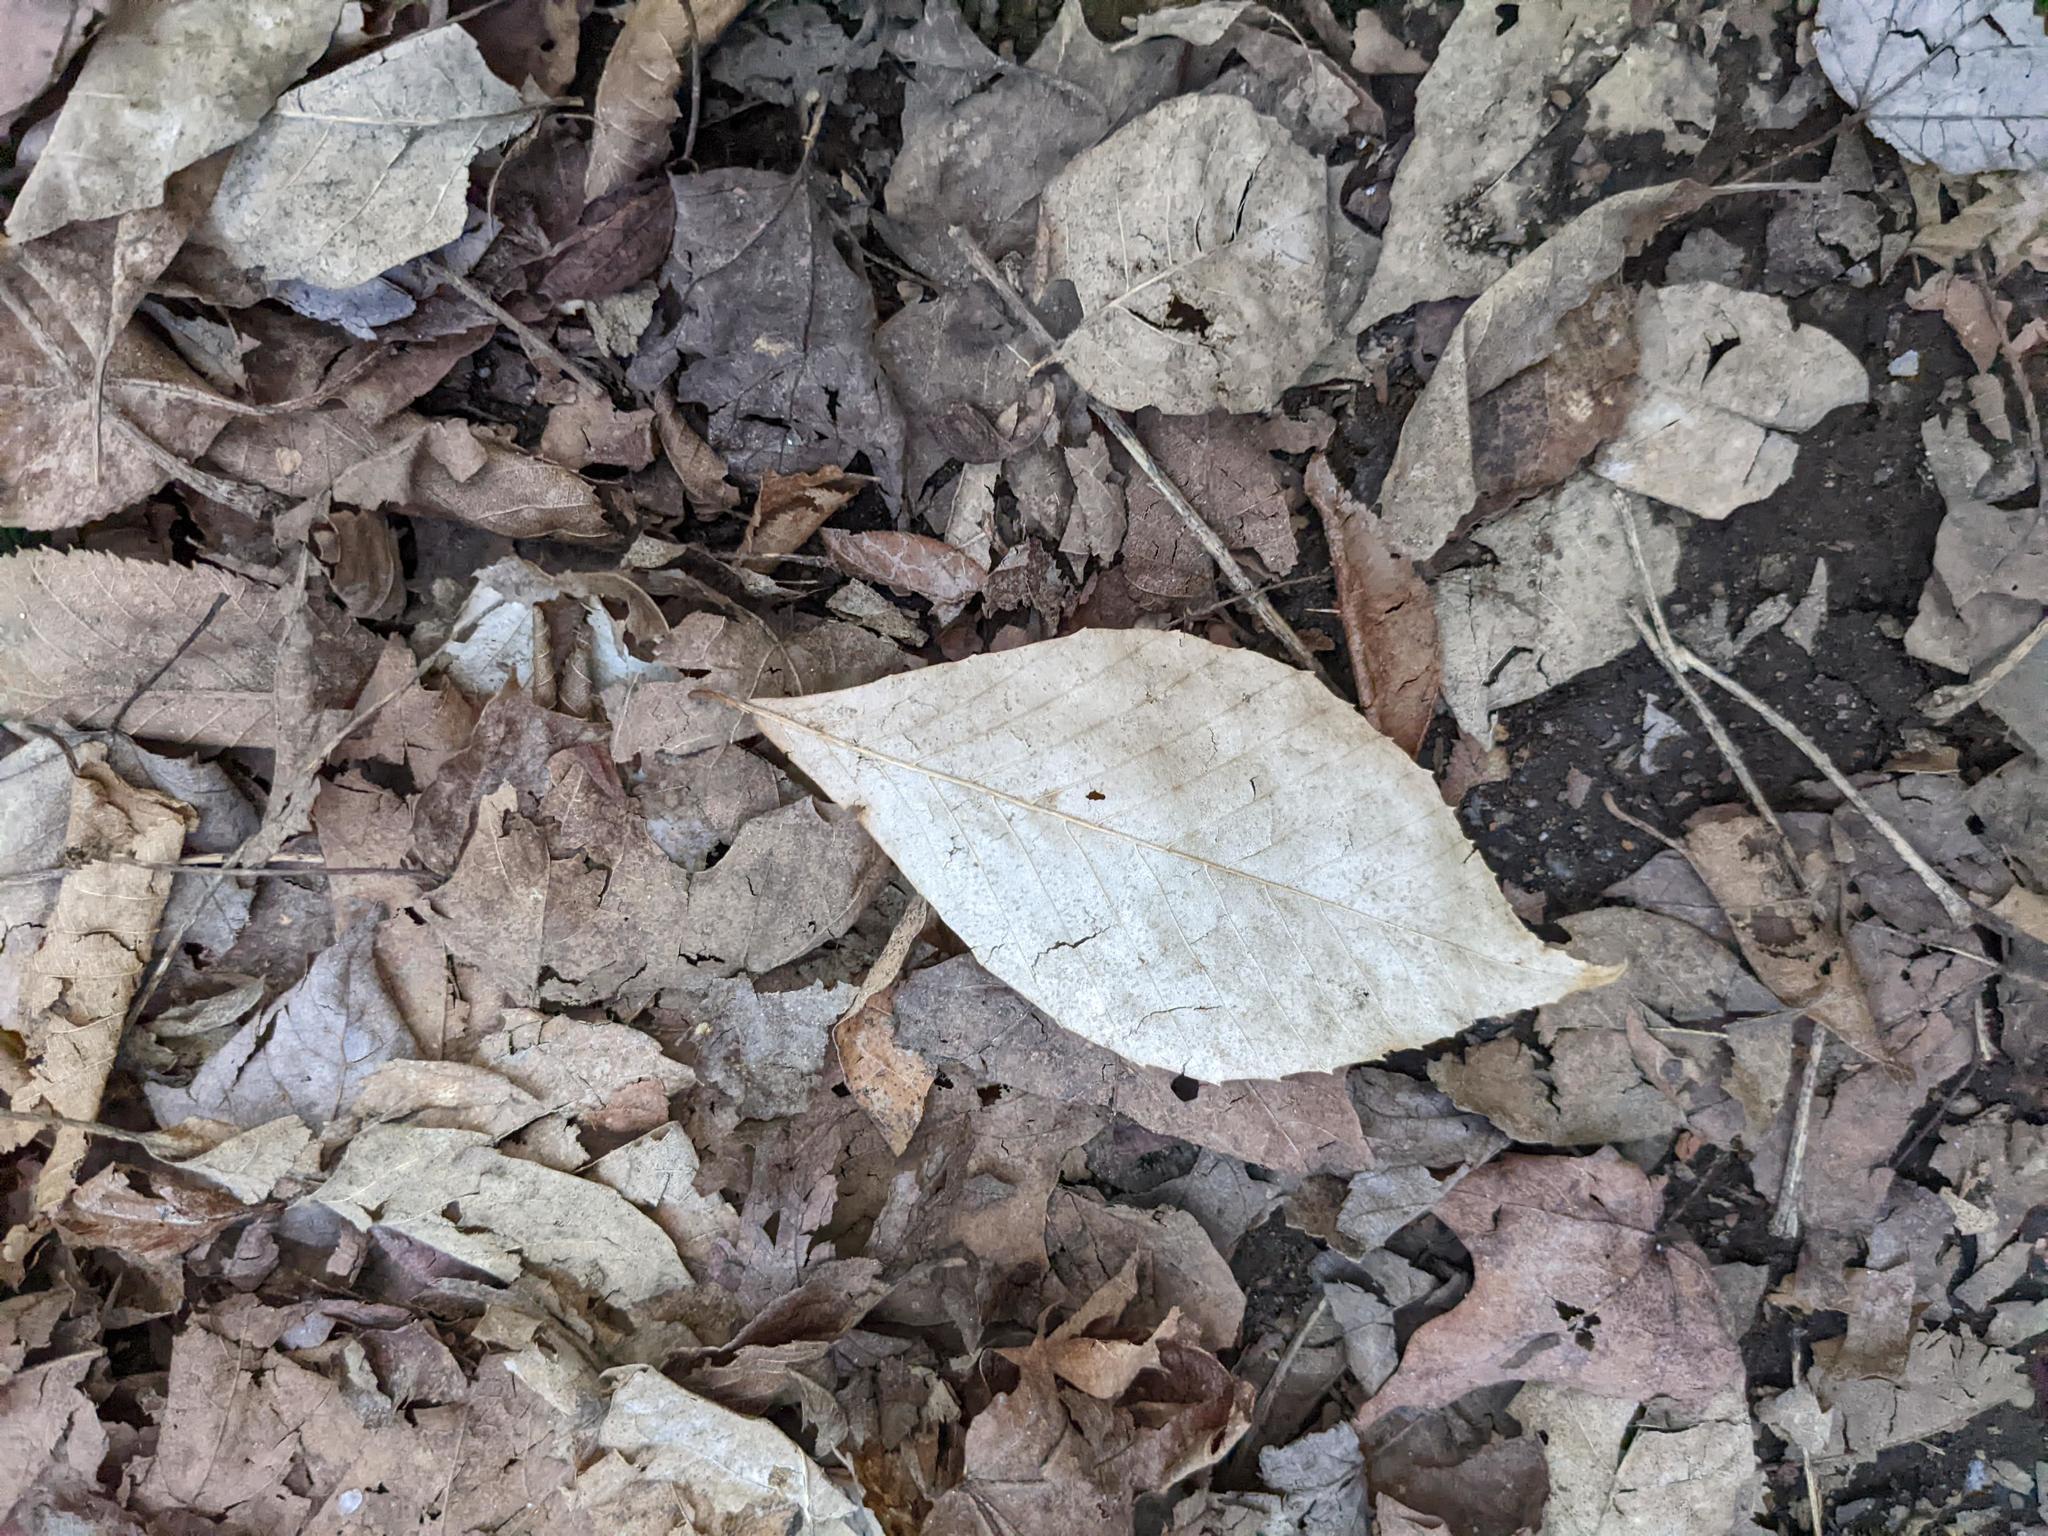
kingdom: Plantae
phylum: Tracheophyta
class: Magnoliopsida
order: Fagales
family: Fagaceae
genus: Fagus
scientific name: Fagus grandifolia
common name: American beech
